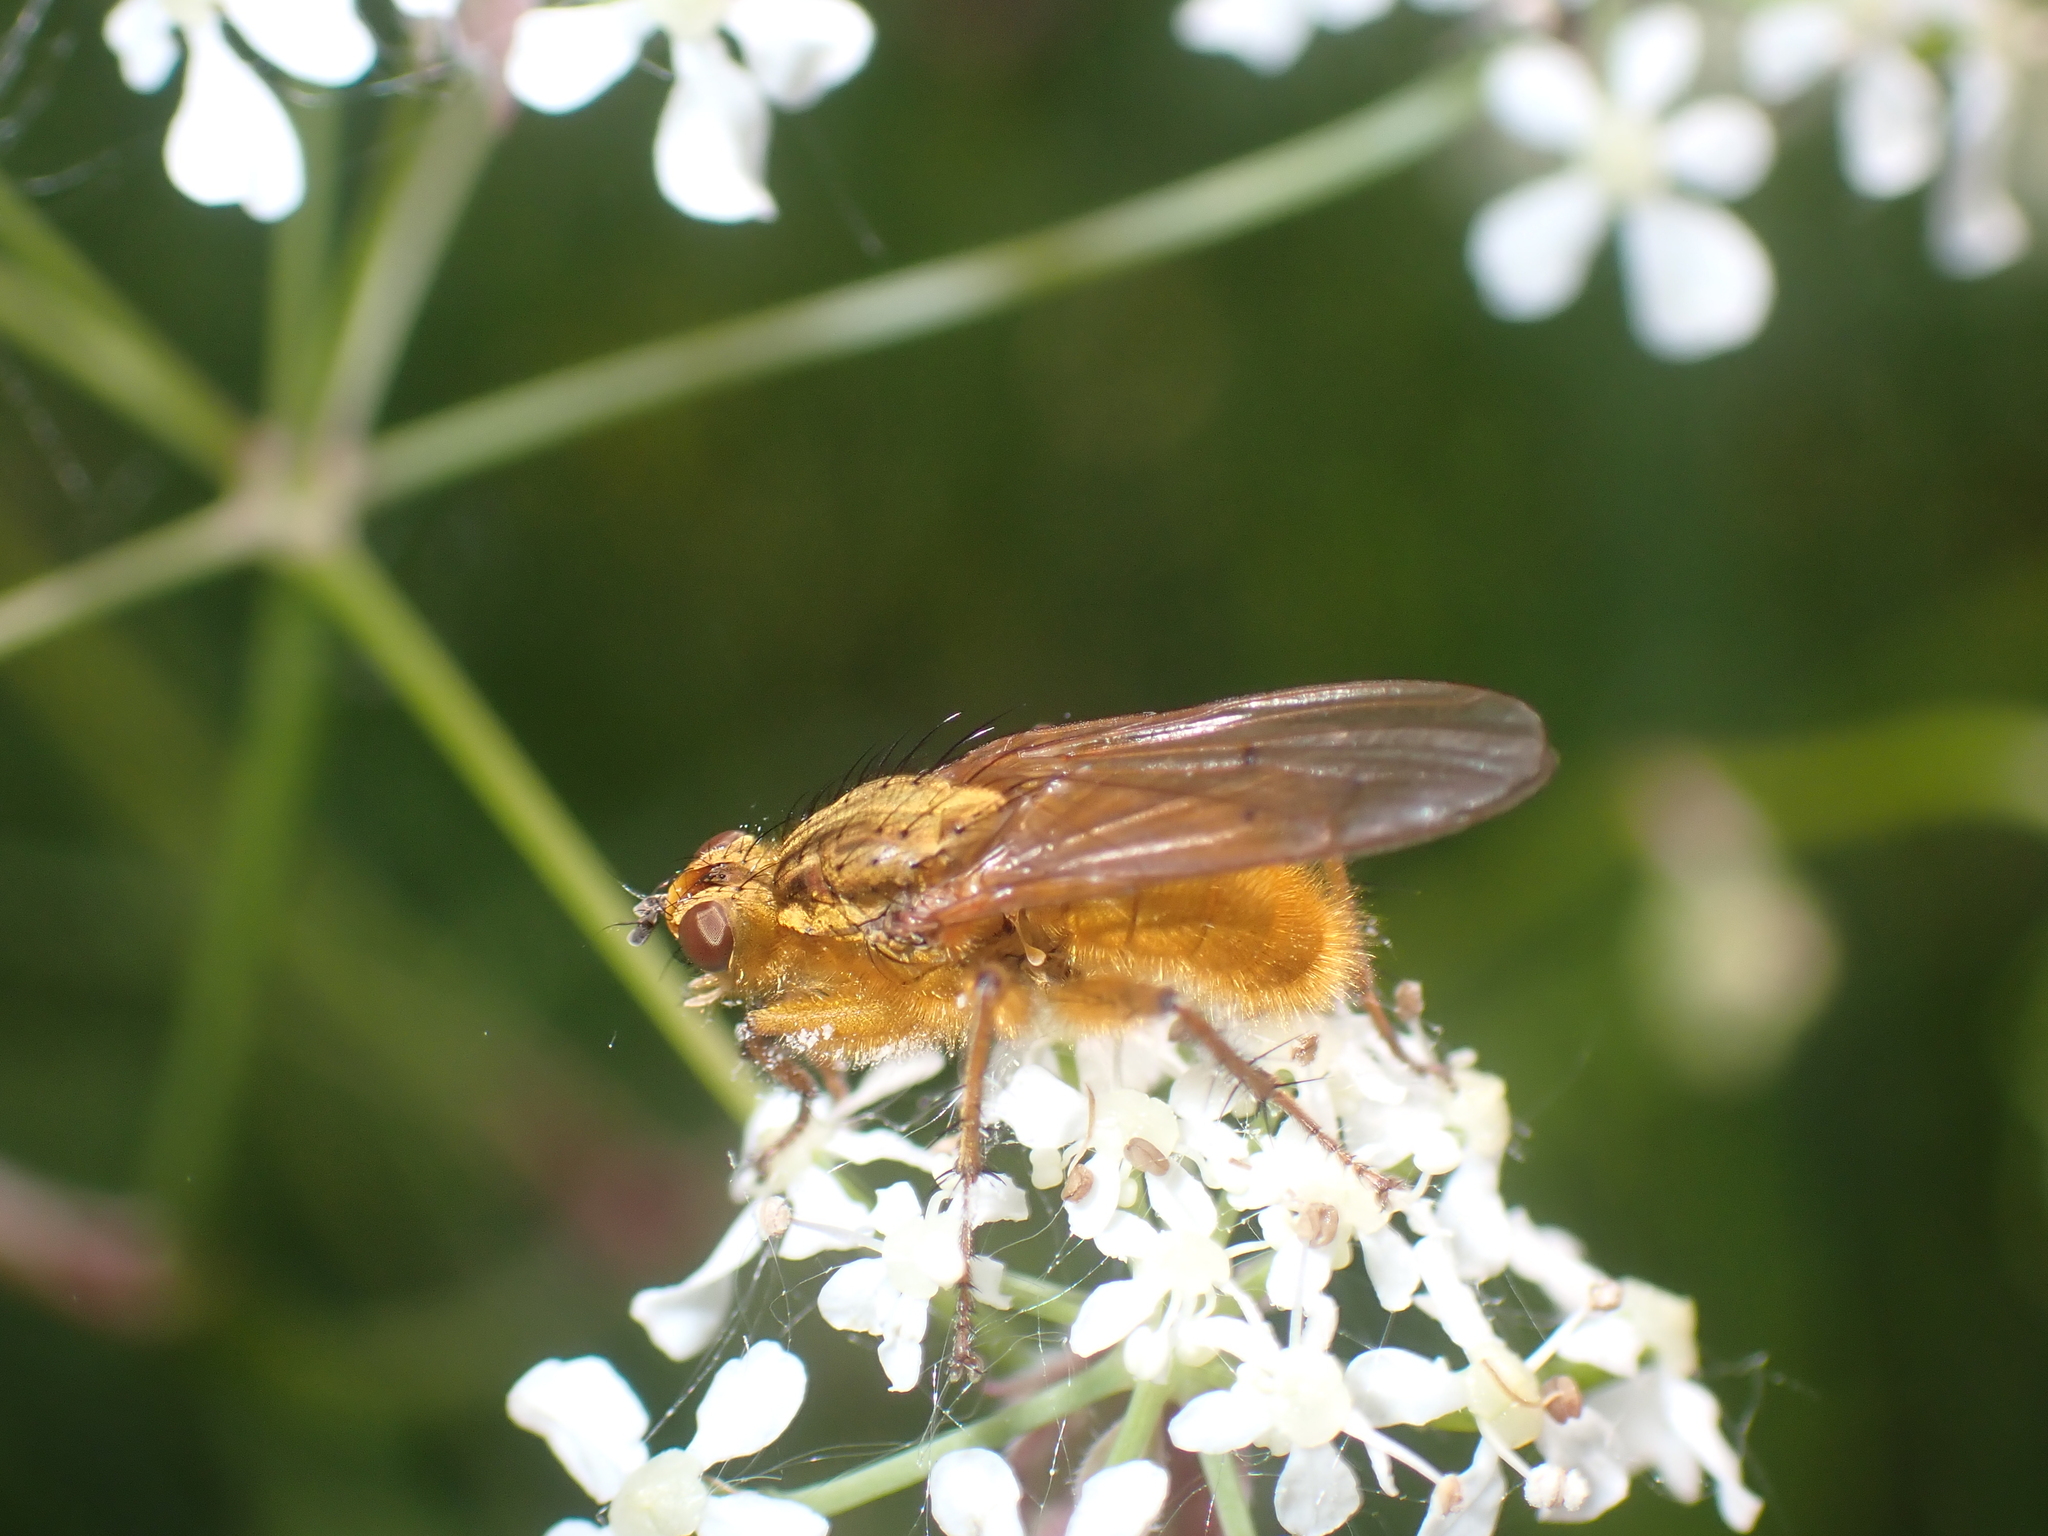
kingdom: Animalia
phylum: Arthropoda
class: Insecta
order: Diptera
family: Scathophagidae
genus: Scathophaga
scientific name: Scathophaga stercoraria
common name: Yellow dung fly
